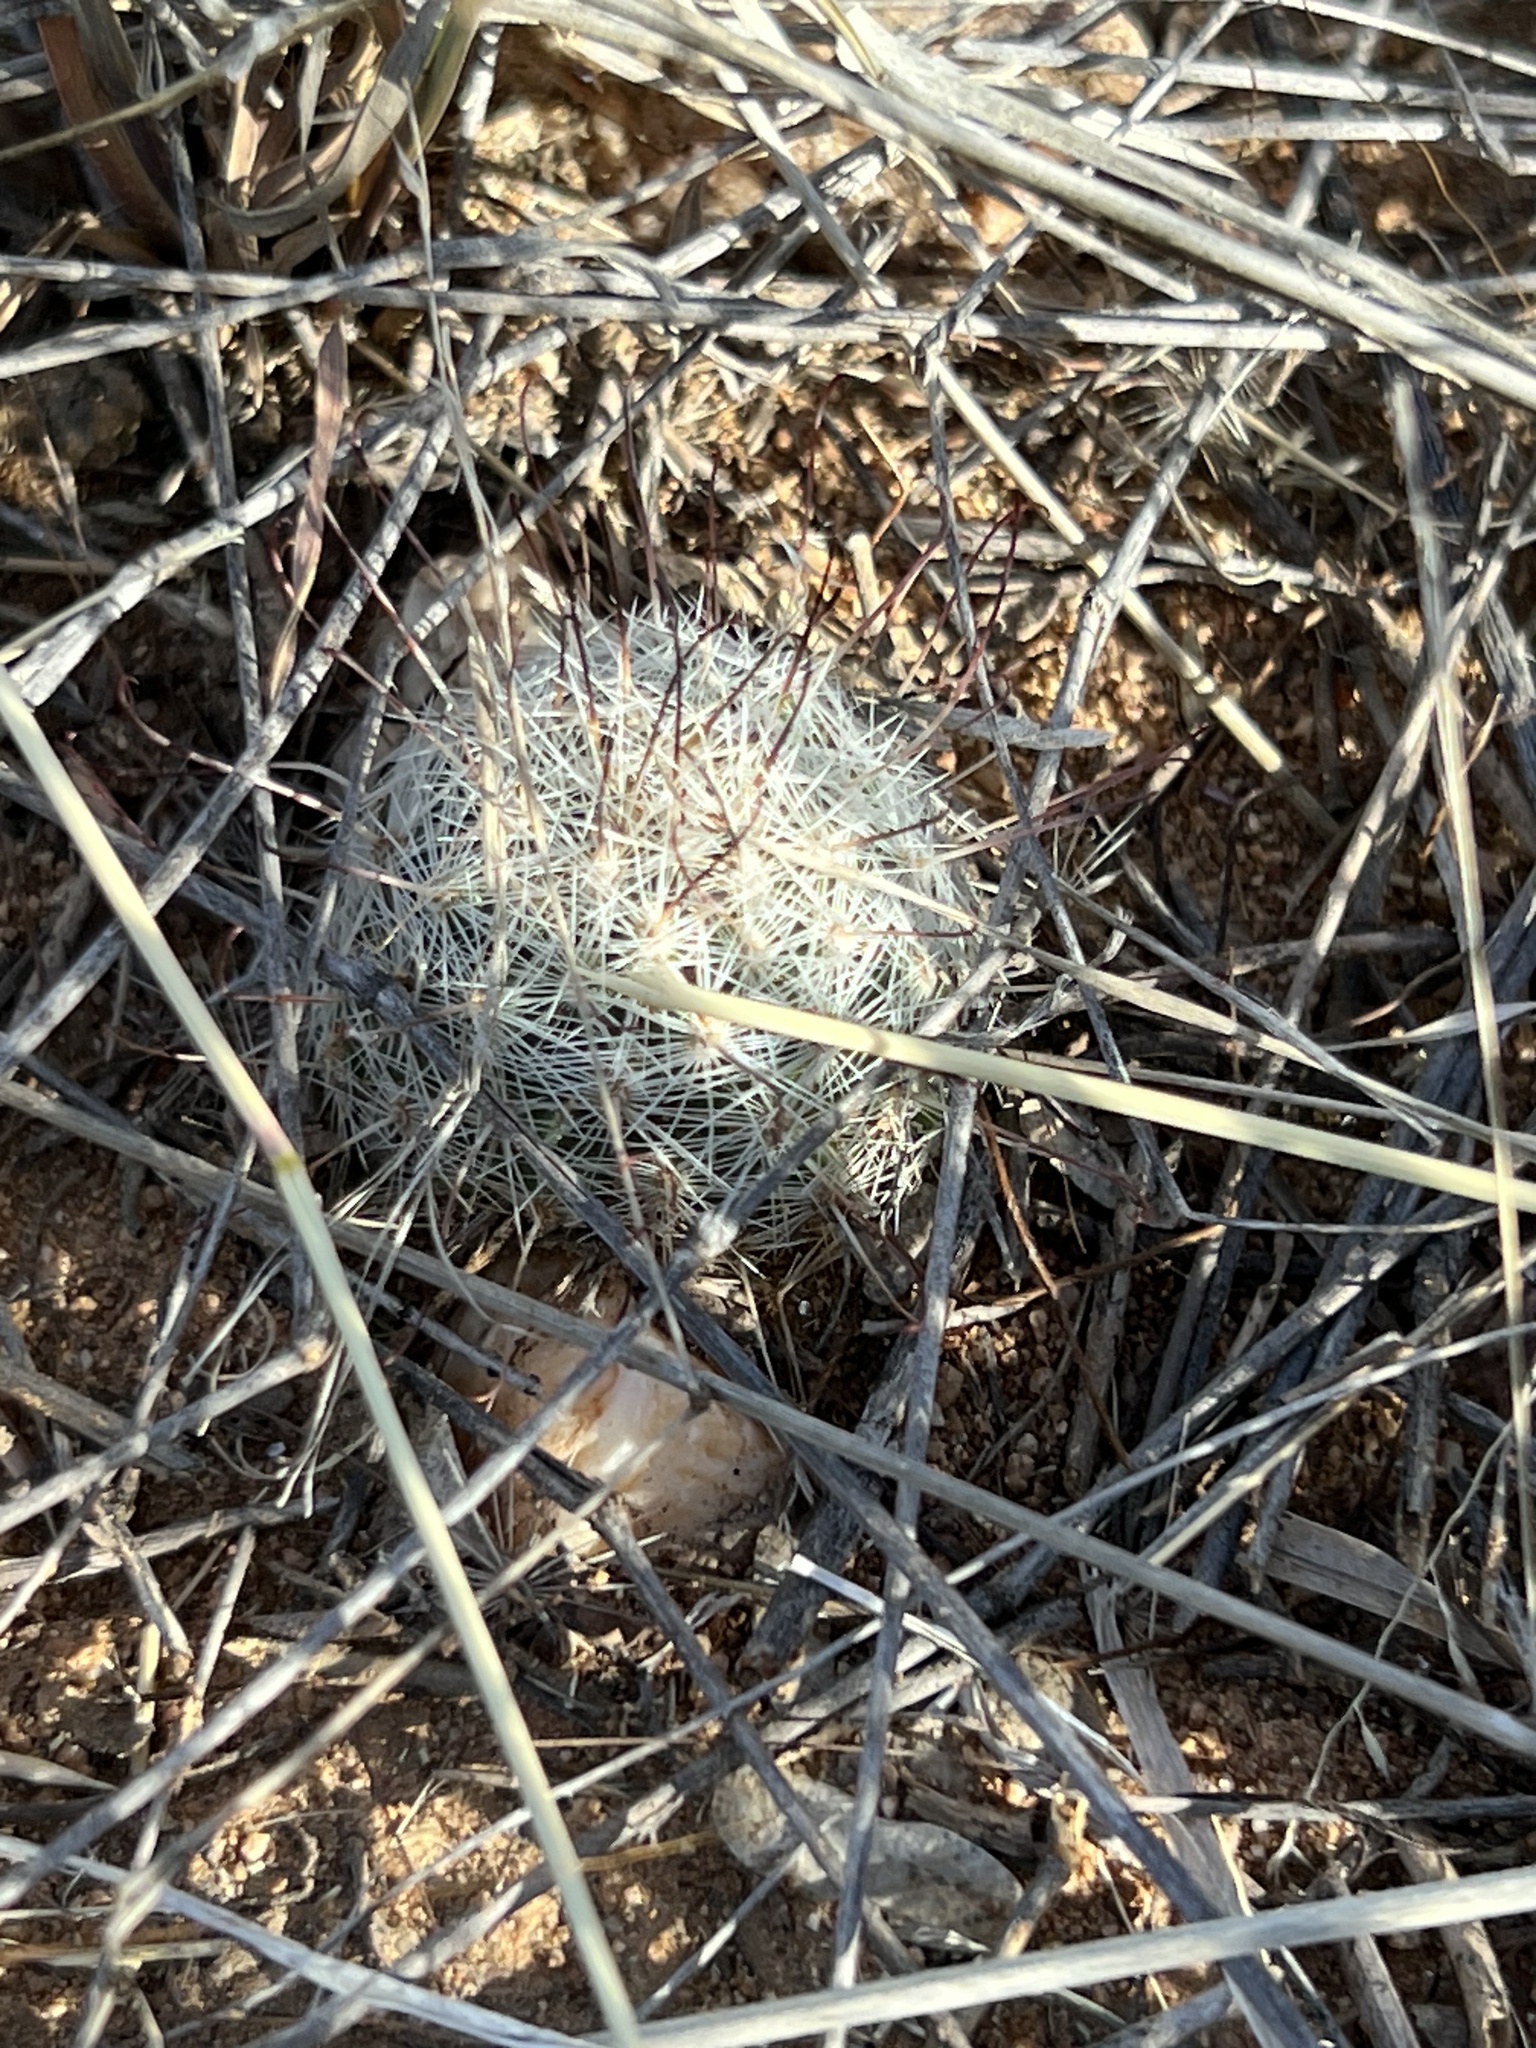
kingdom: Plantae
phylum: Tracheophyta
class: Magnoliopsida
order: Caryophyllales
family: Cactaceae
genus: Cochemiea
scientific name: Cochemiea grahamii
